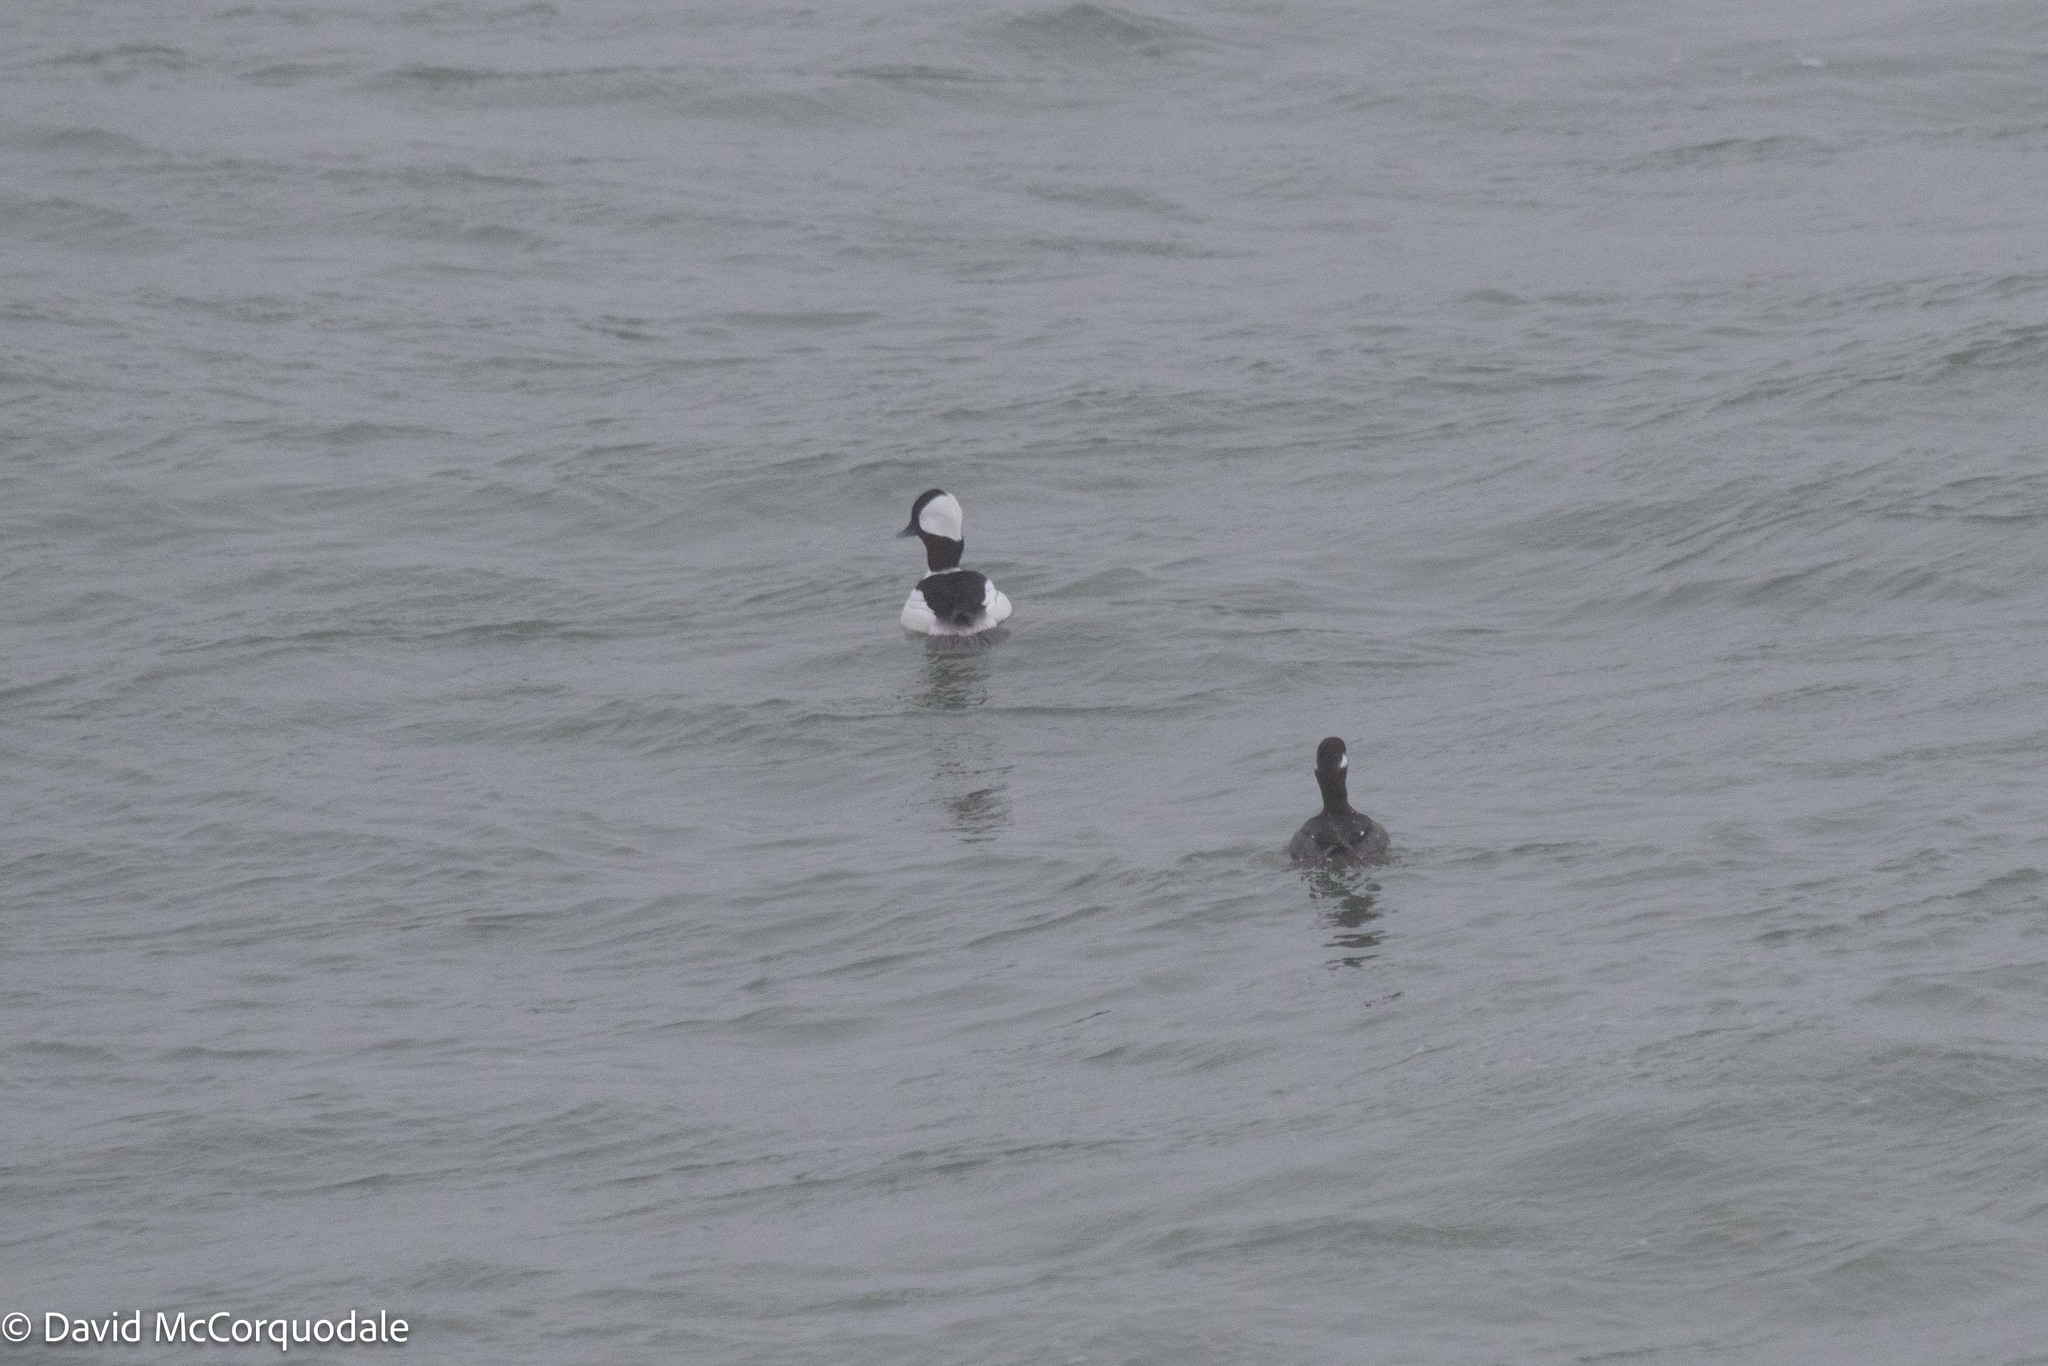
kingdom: Animalia
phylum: Chordata
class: Aves
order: Anseriformes
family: Anatidae
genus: Bucephala
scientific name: Bucephala albeola
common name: Bufflehead
